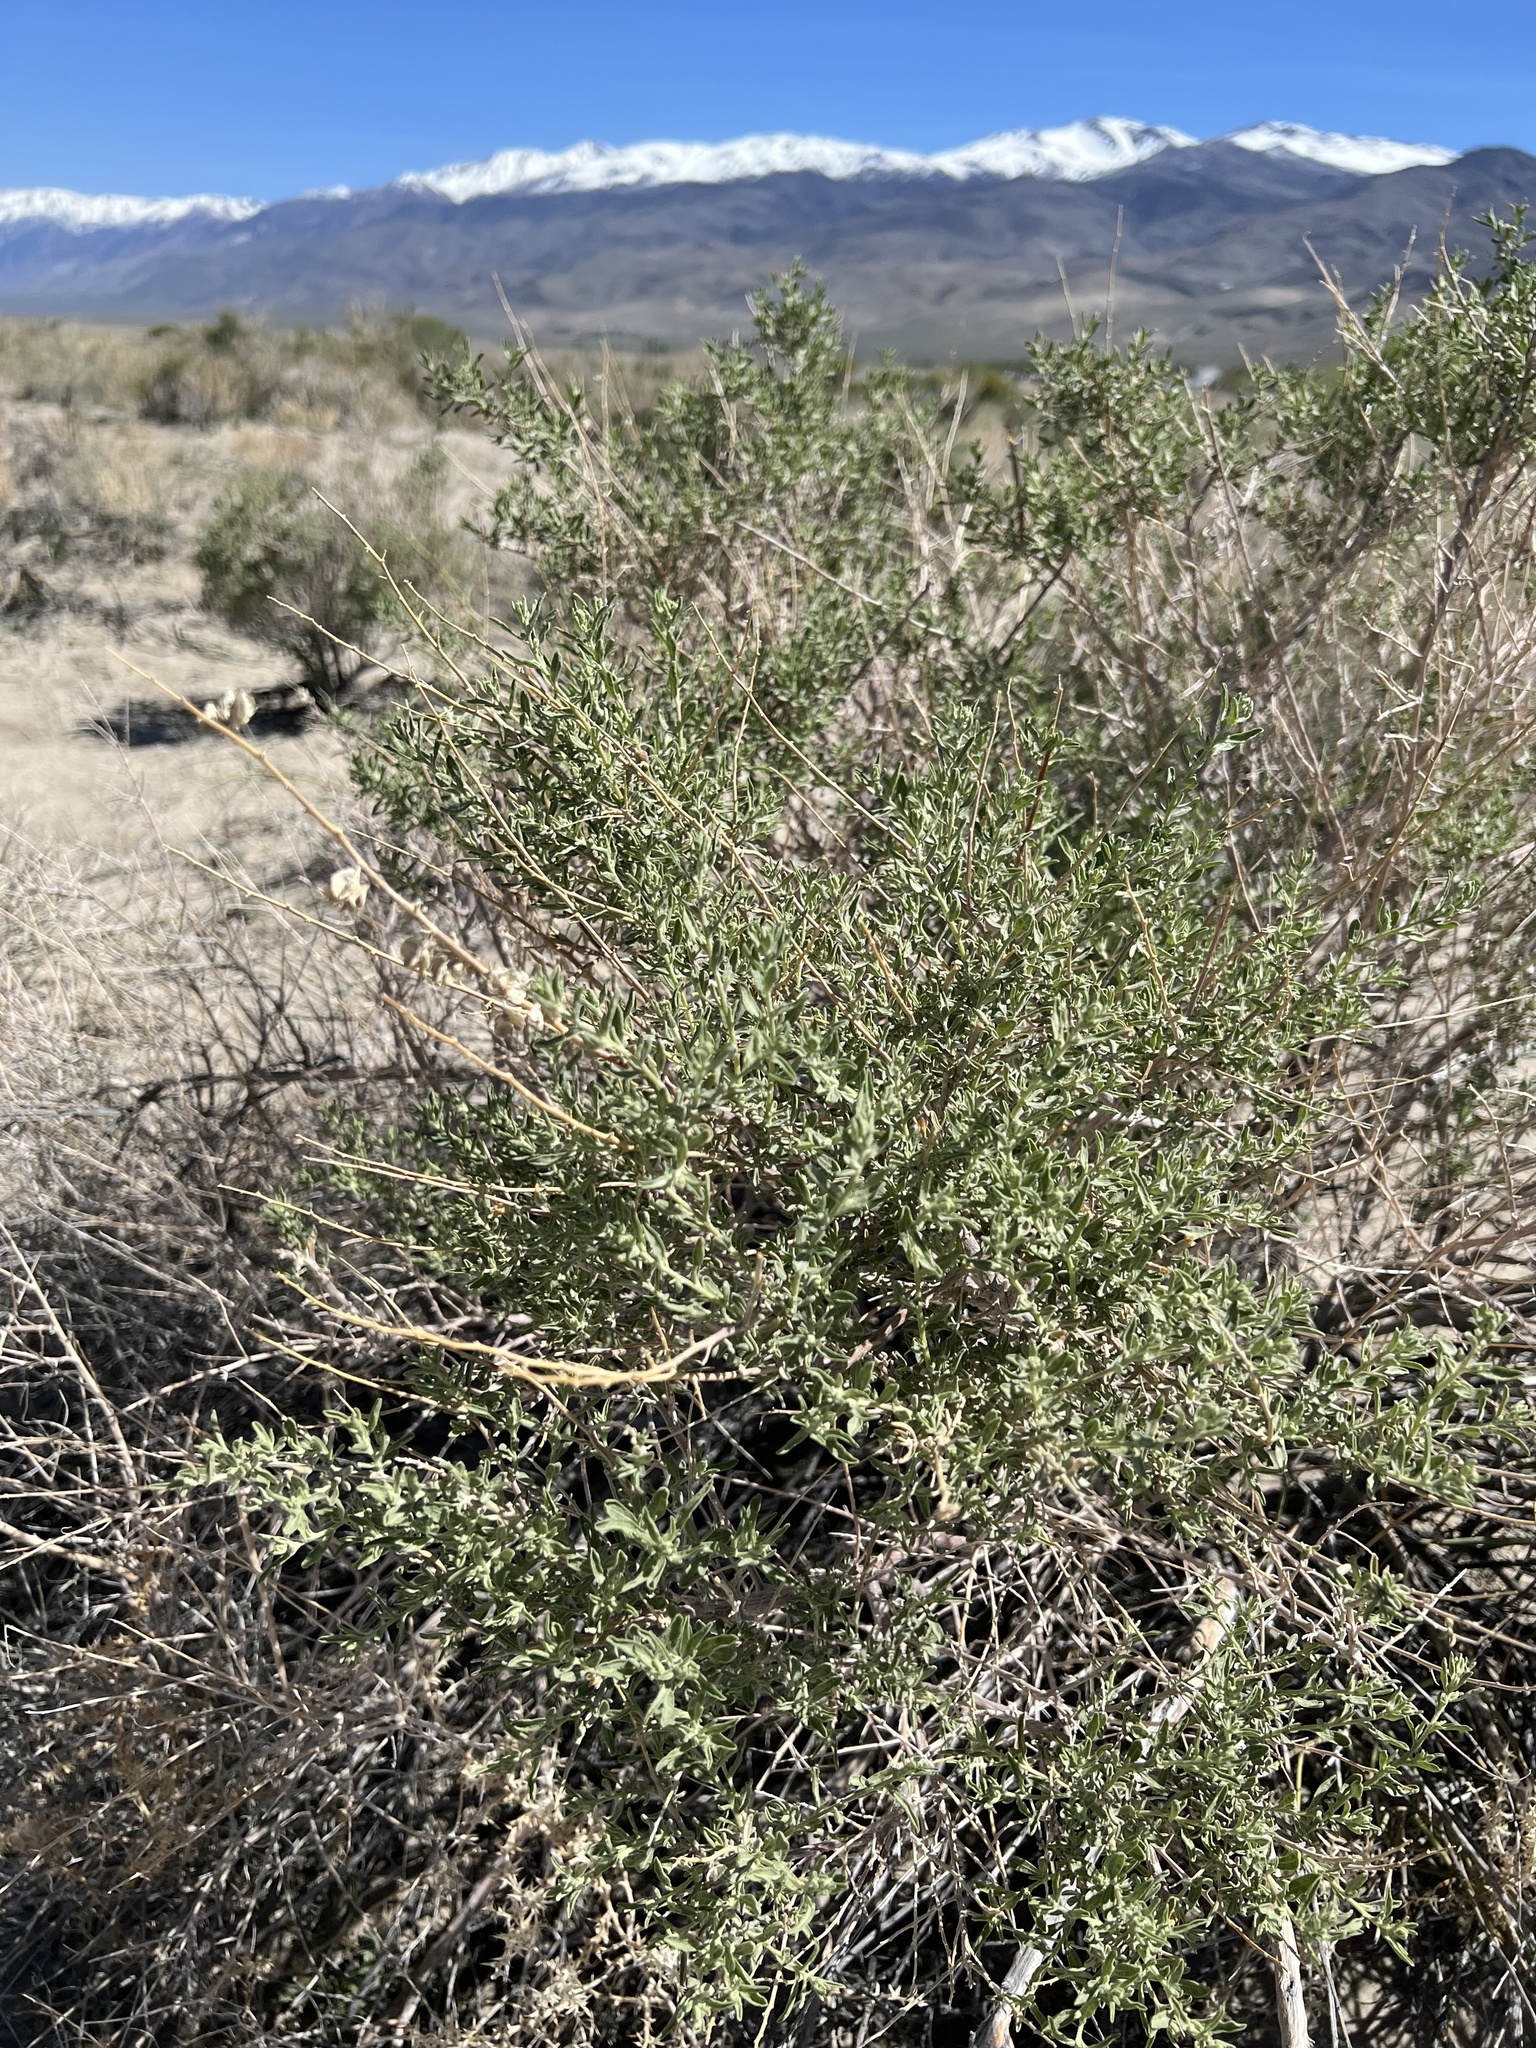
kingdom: Plantae
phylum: Tracheophyta
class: Magnoliopsida
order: Caryophyllales
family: Amaranthaceae
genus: Atriplex
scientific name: Atriplex canescens
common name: Four-wing saltbush
